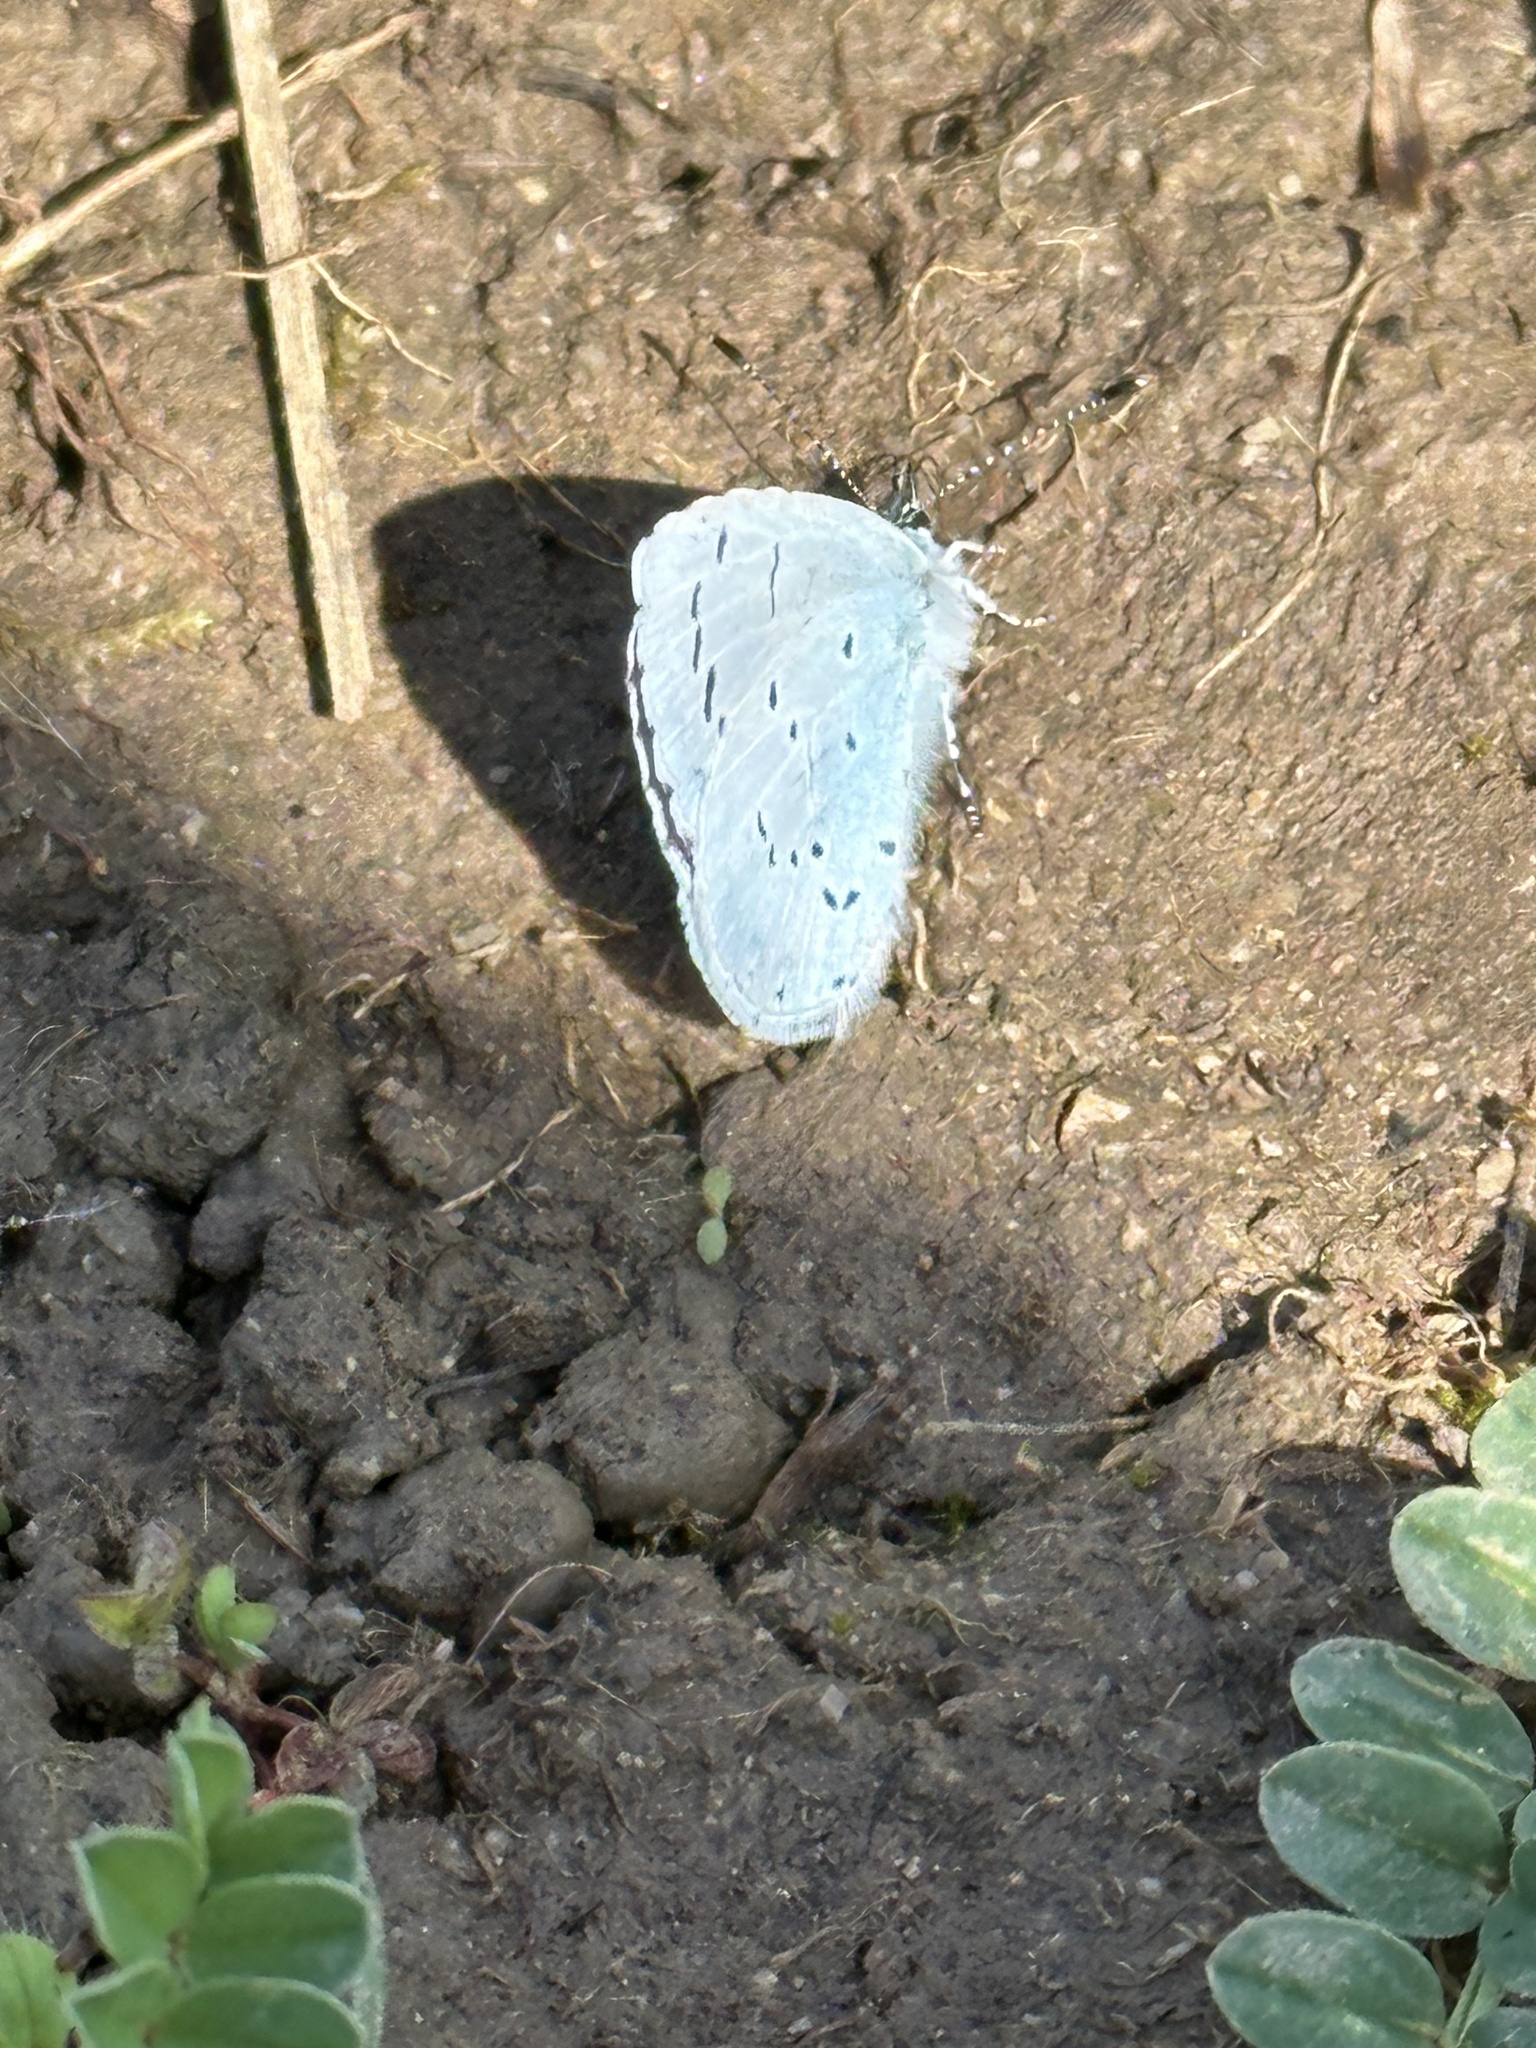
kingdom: Animalia
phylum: Arthropoda
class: Insecta
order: Lepidoptera
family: Lycaenidae
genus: Celastrina
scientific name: Celastrina argiolus
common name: Holly blue
